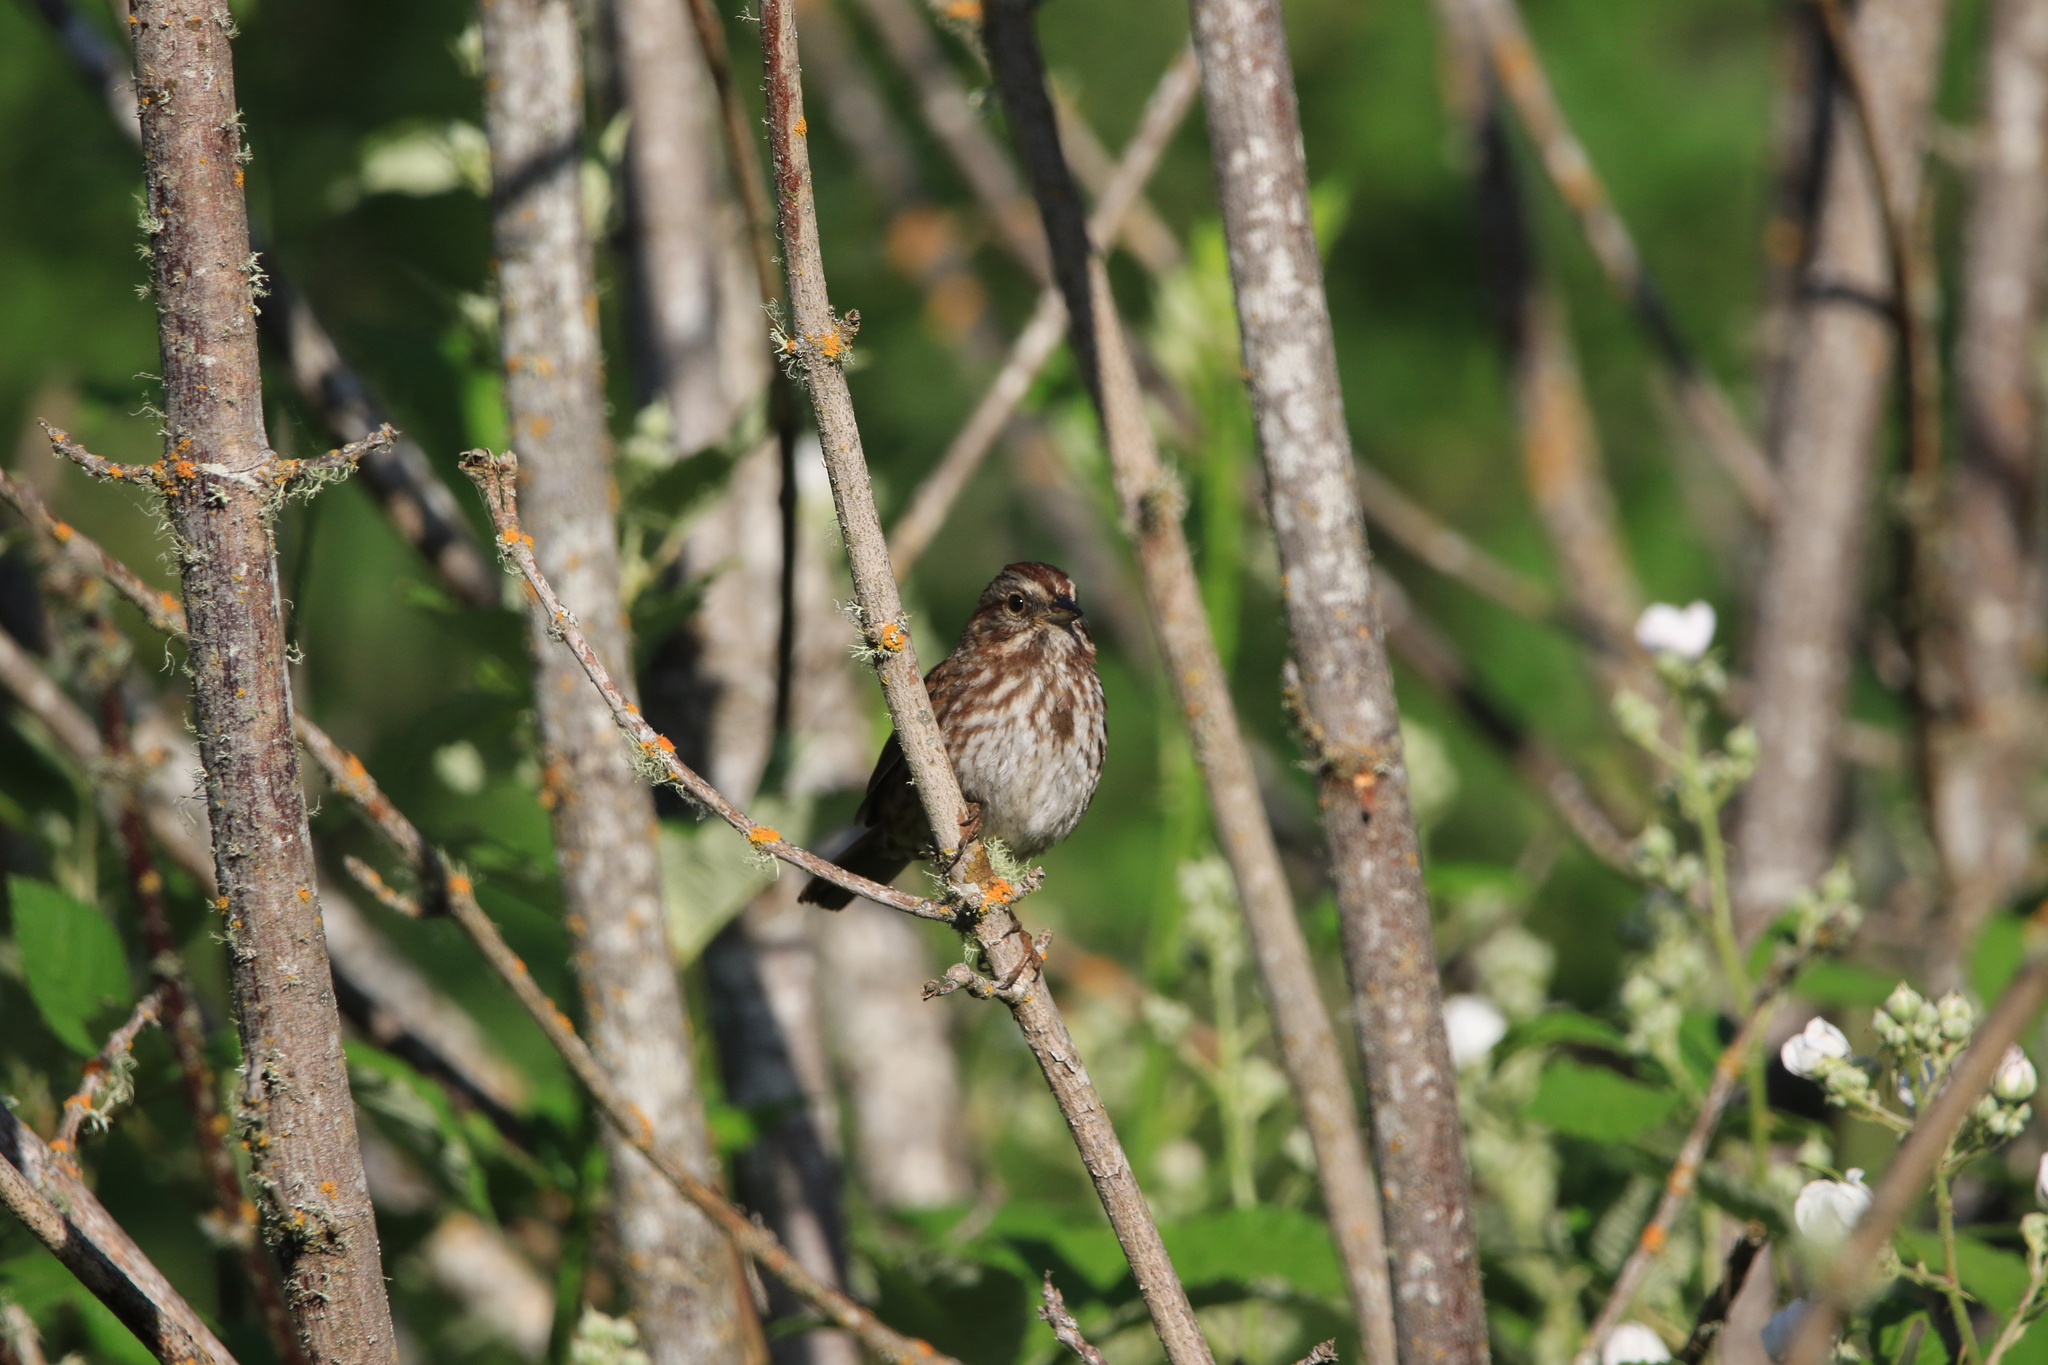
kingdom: Animalia
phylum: Chordata
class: Aves
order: Passeriformes
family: Passerellidae
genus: Melospiza
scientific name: Melospiza melodia
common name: Song sparrow
